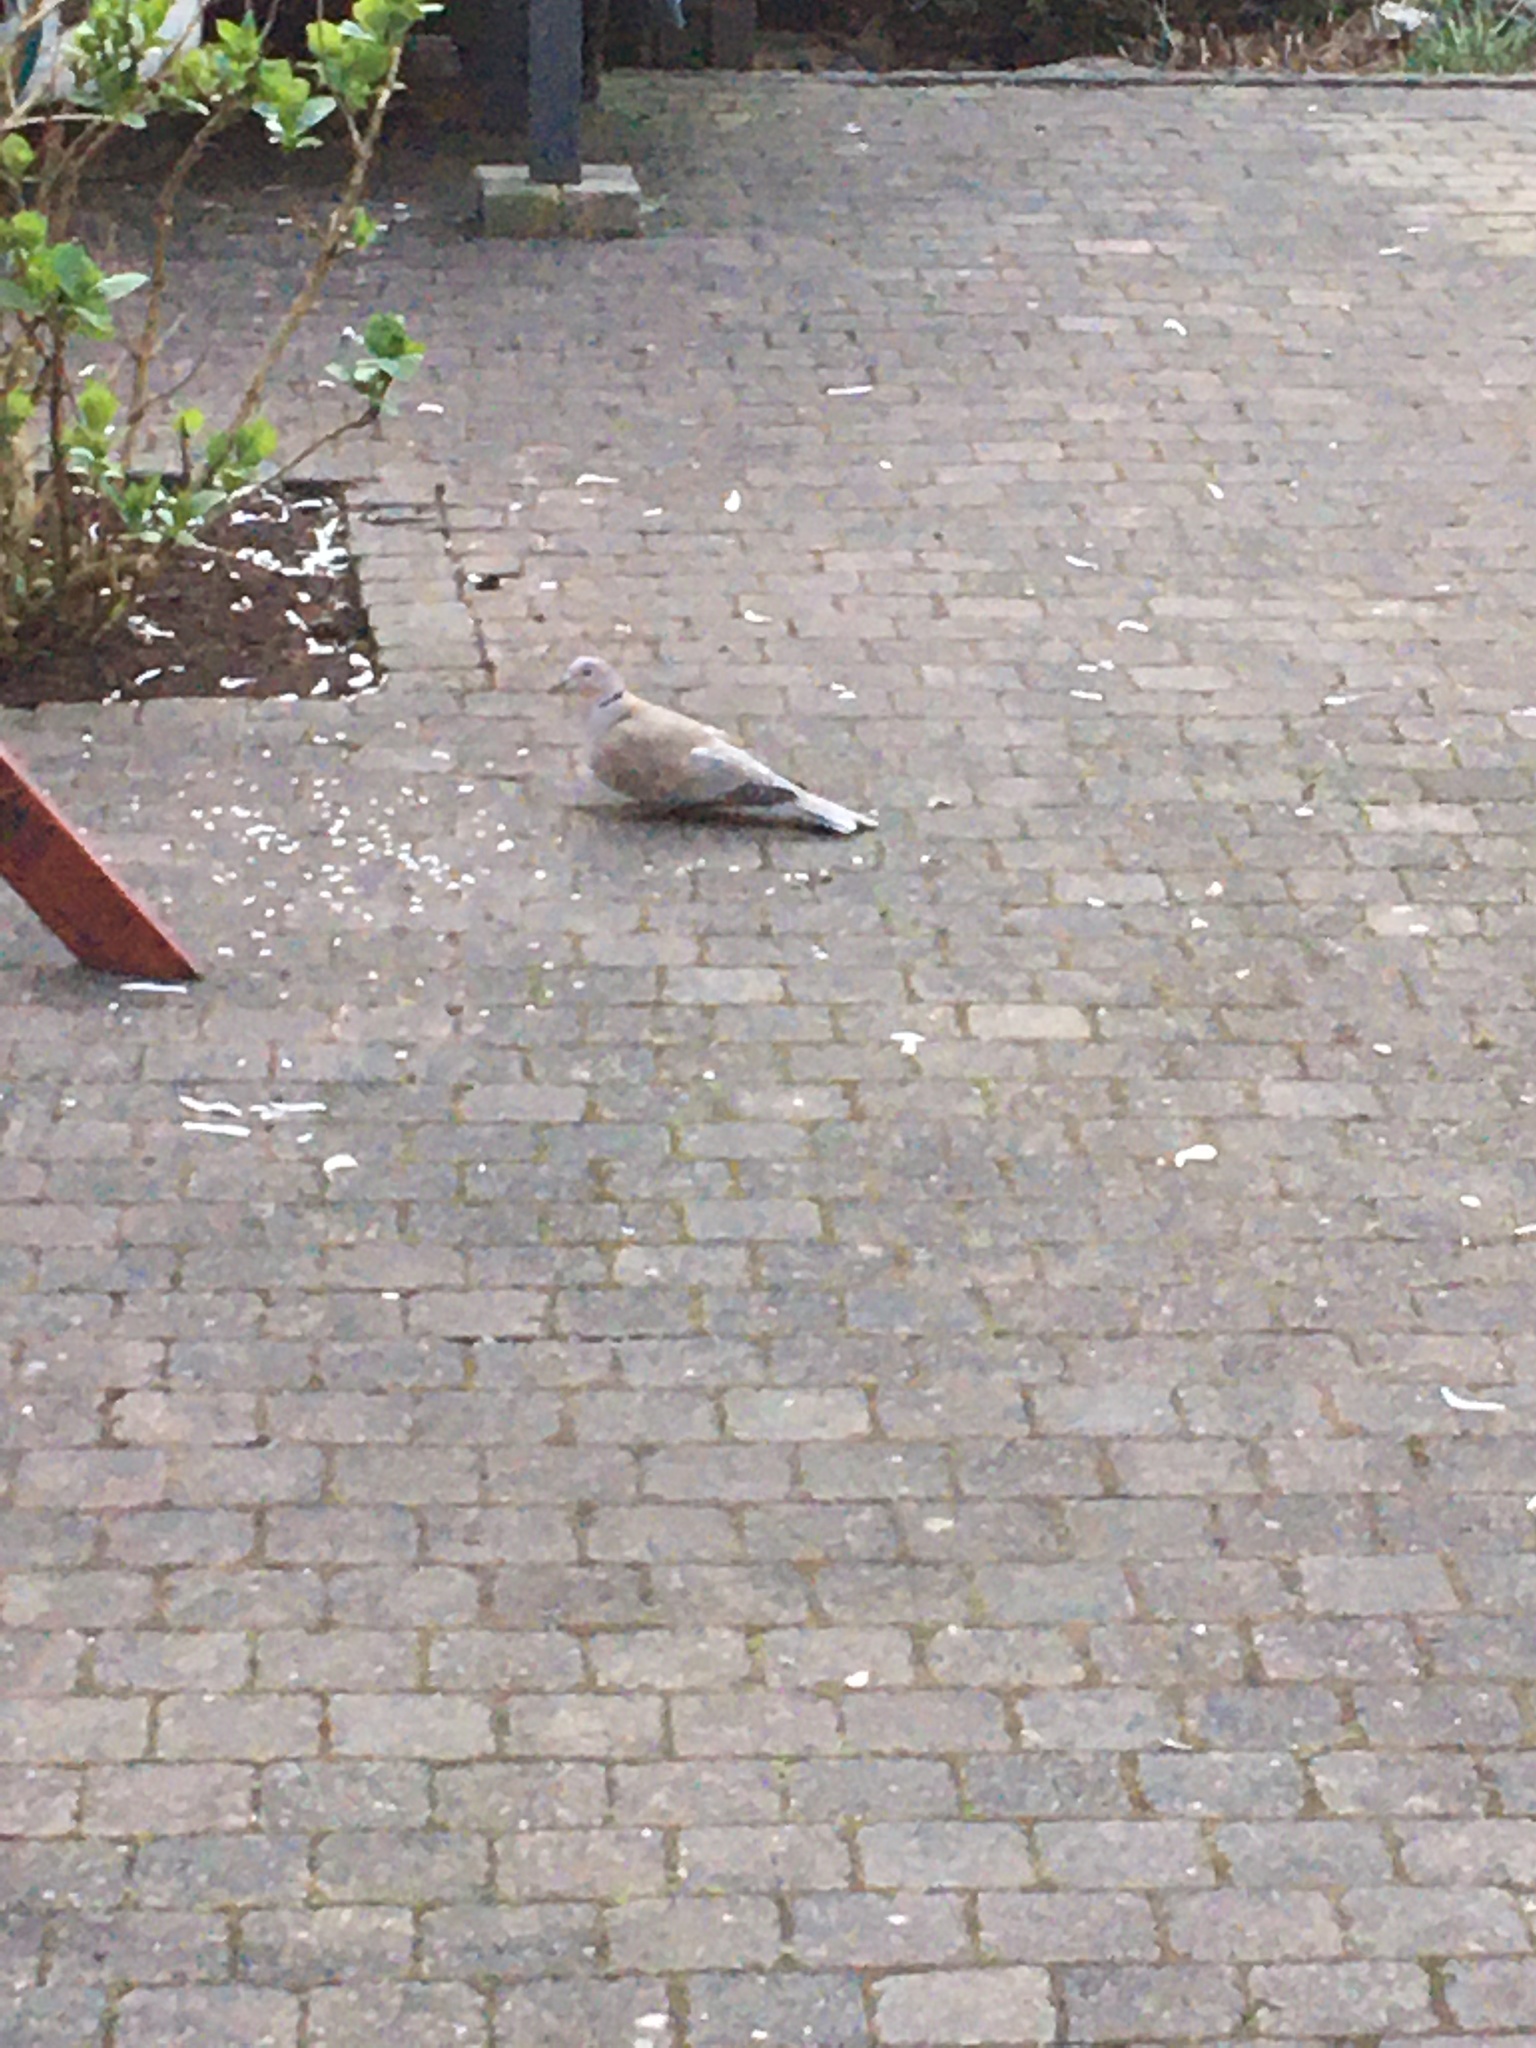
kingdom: Animalia
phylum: Chordata
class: Aves
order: Columbiformes
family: Columbidae
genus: Streptopelia
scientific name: Streptopelia decaocto
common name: Eurasian collared dove
